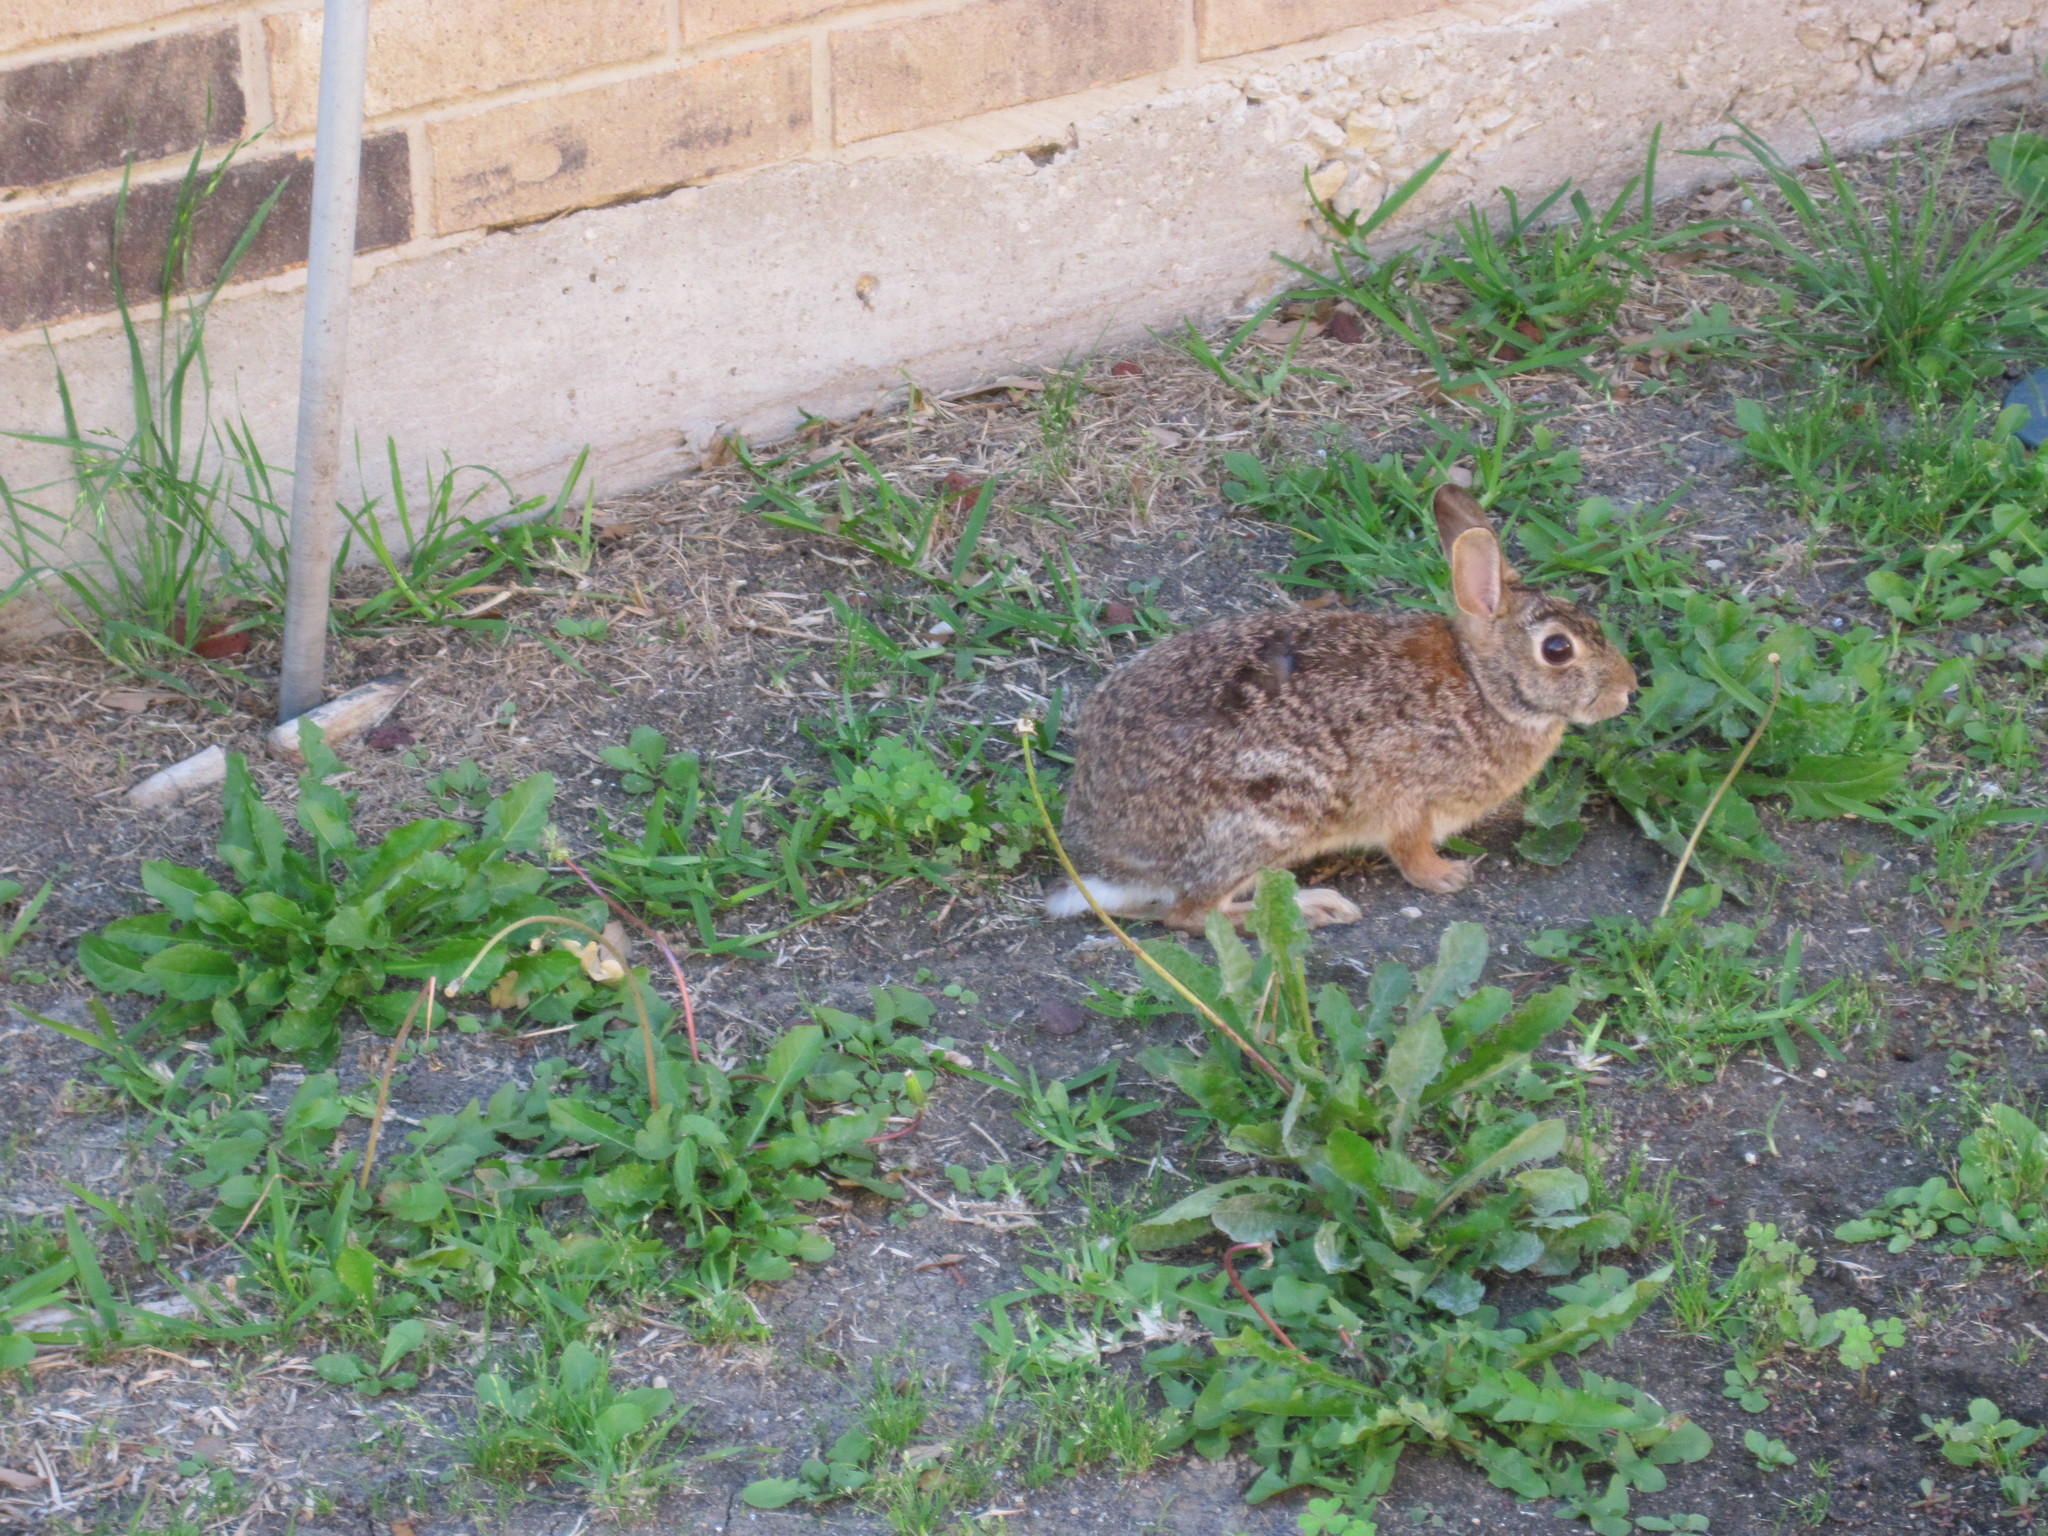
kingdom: Animalia
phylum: Chordata
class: Mammalia
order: Lagomorpha
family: Leporidae
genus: Sylvilagus
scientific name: Sylvilagus floridanus
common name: Eastern cottontail
